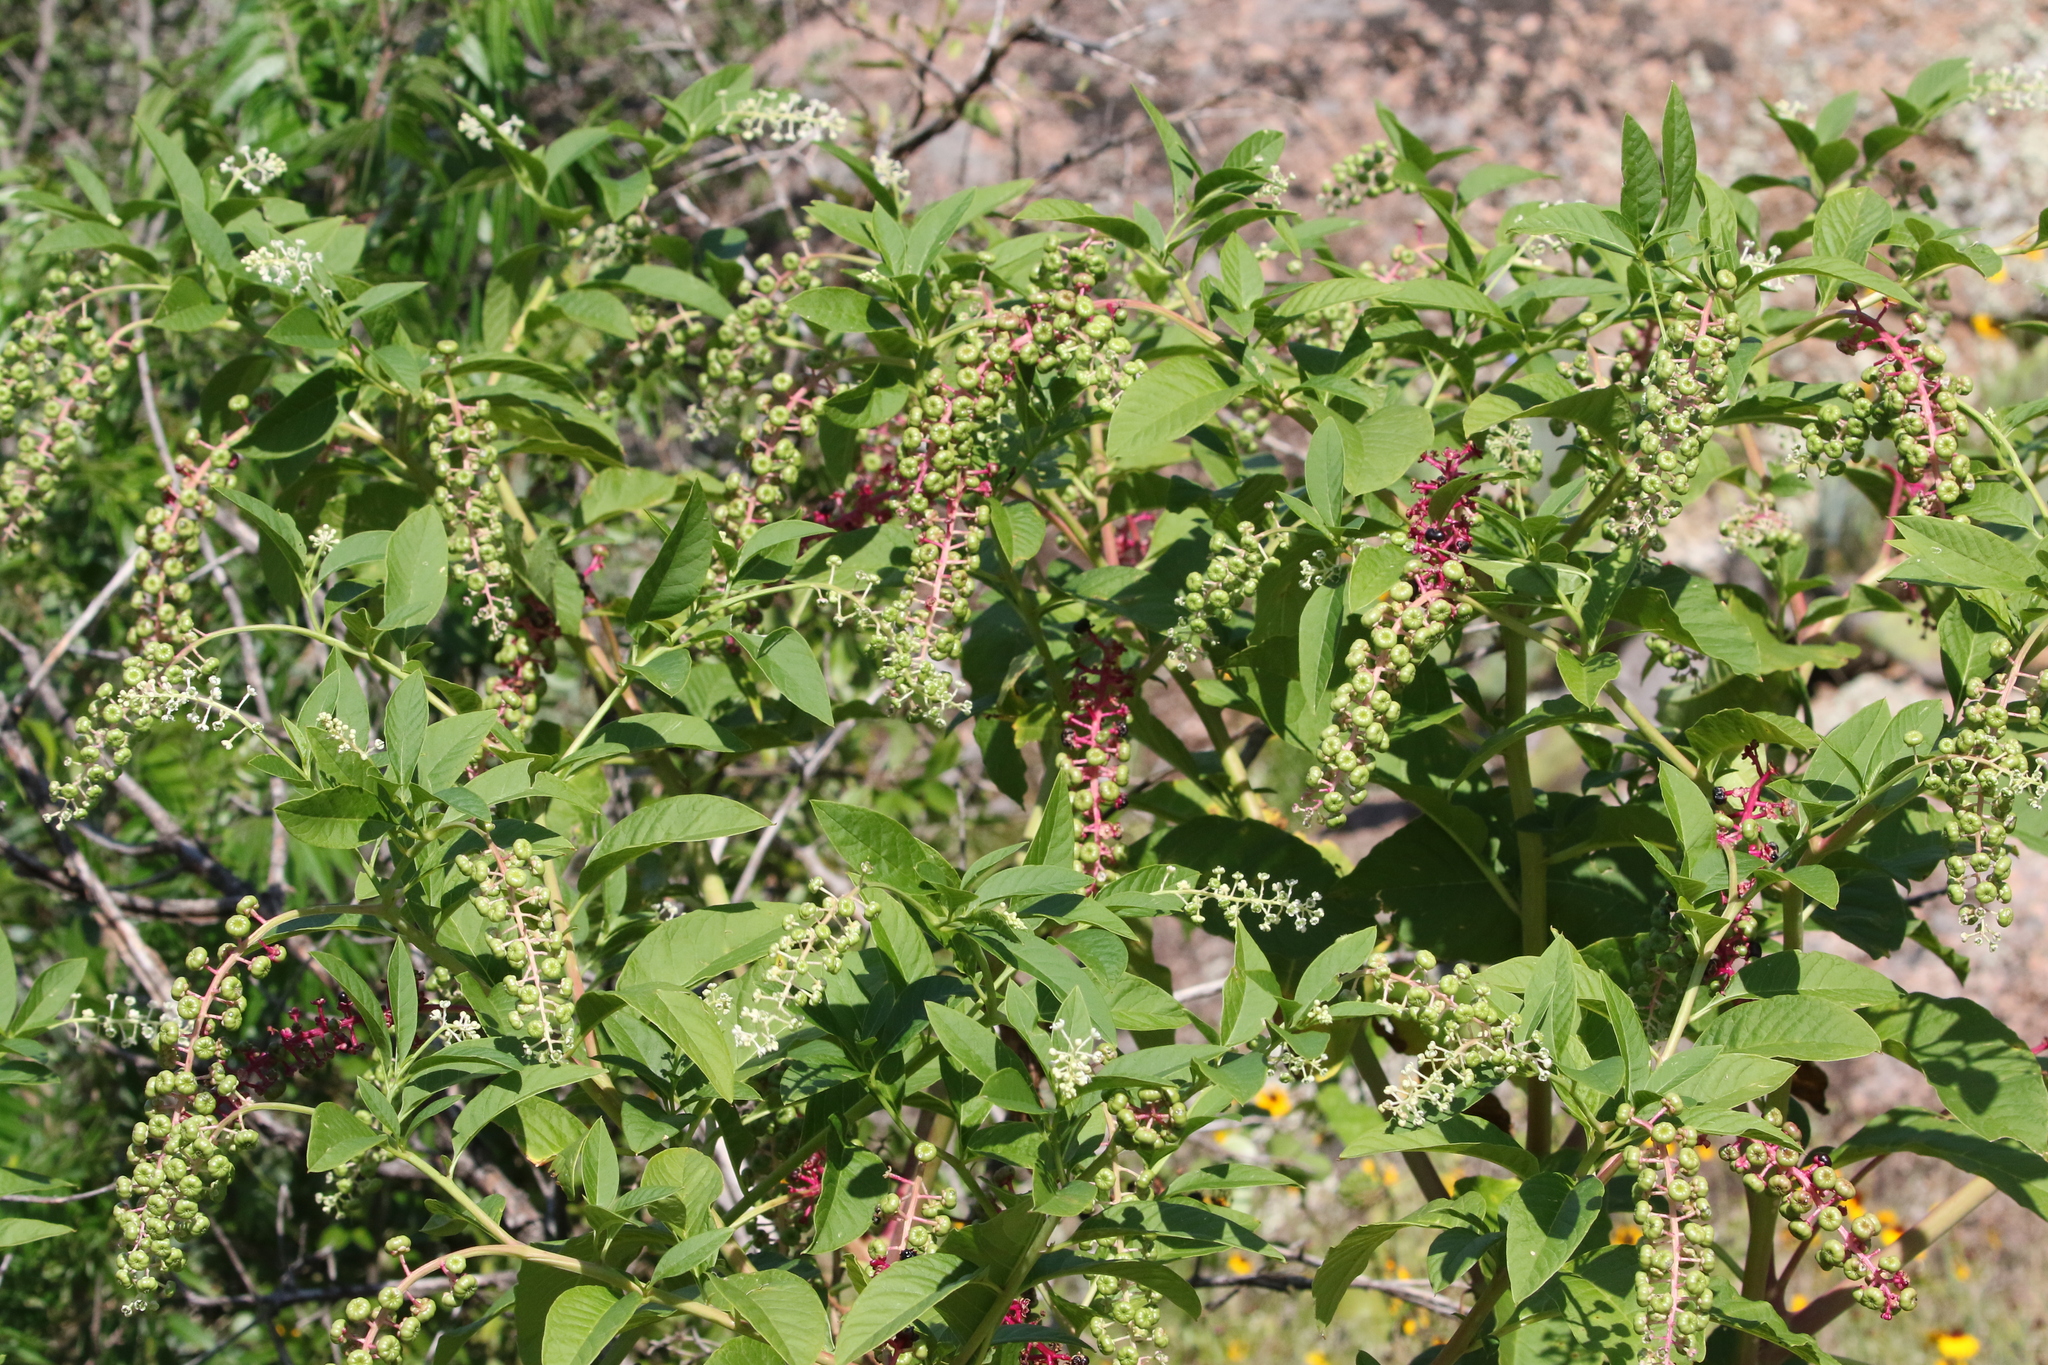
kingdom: Plantae
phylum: Tracheophyta
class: Magnoliopsida
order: Caryophyllales
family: Phytolaccaceae
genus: Phytolacca
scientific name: Phytolacca americana
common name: American pokeweed
